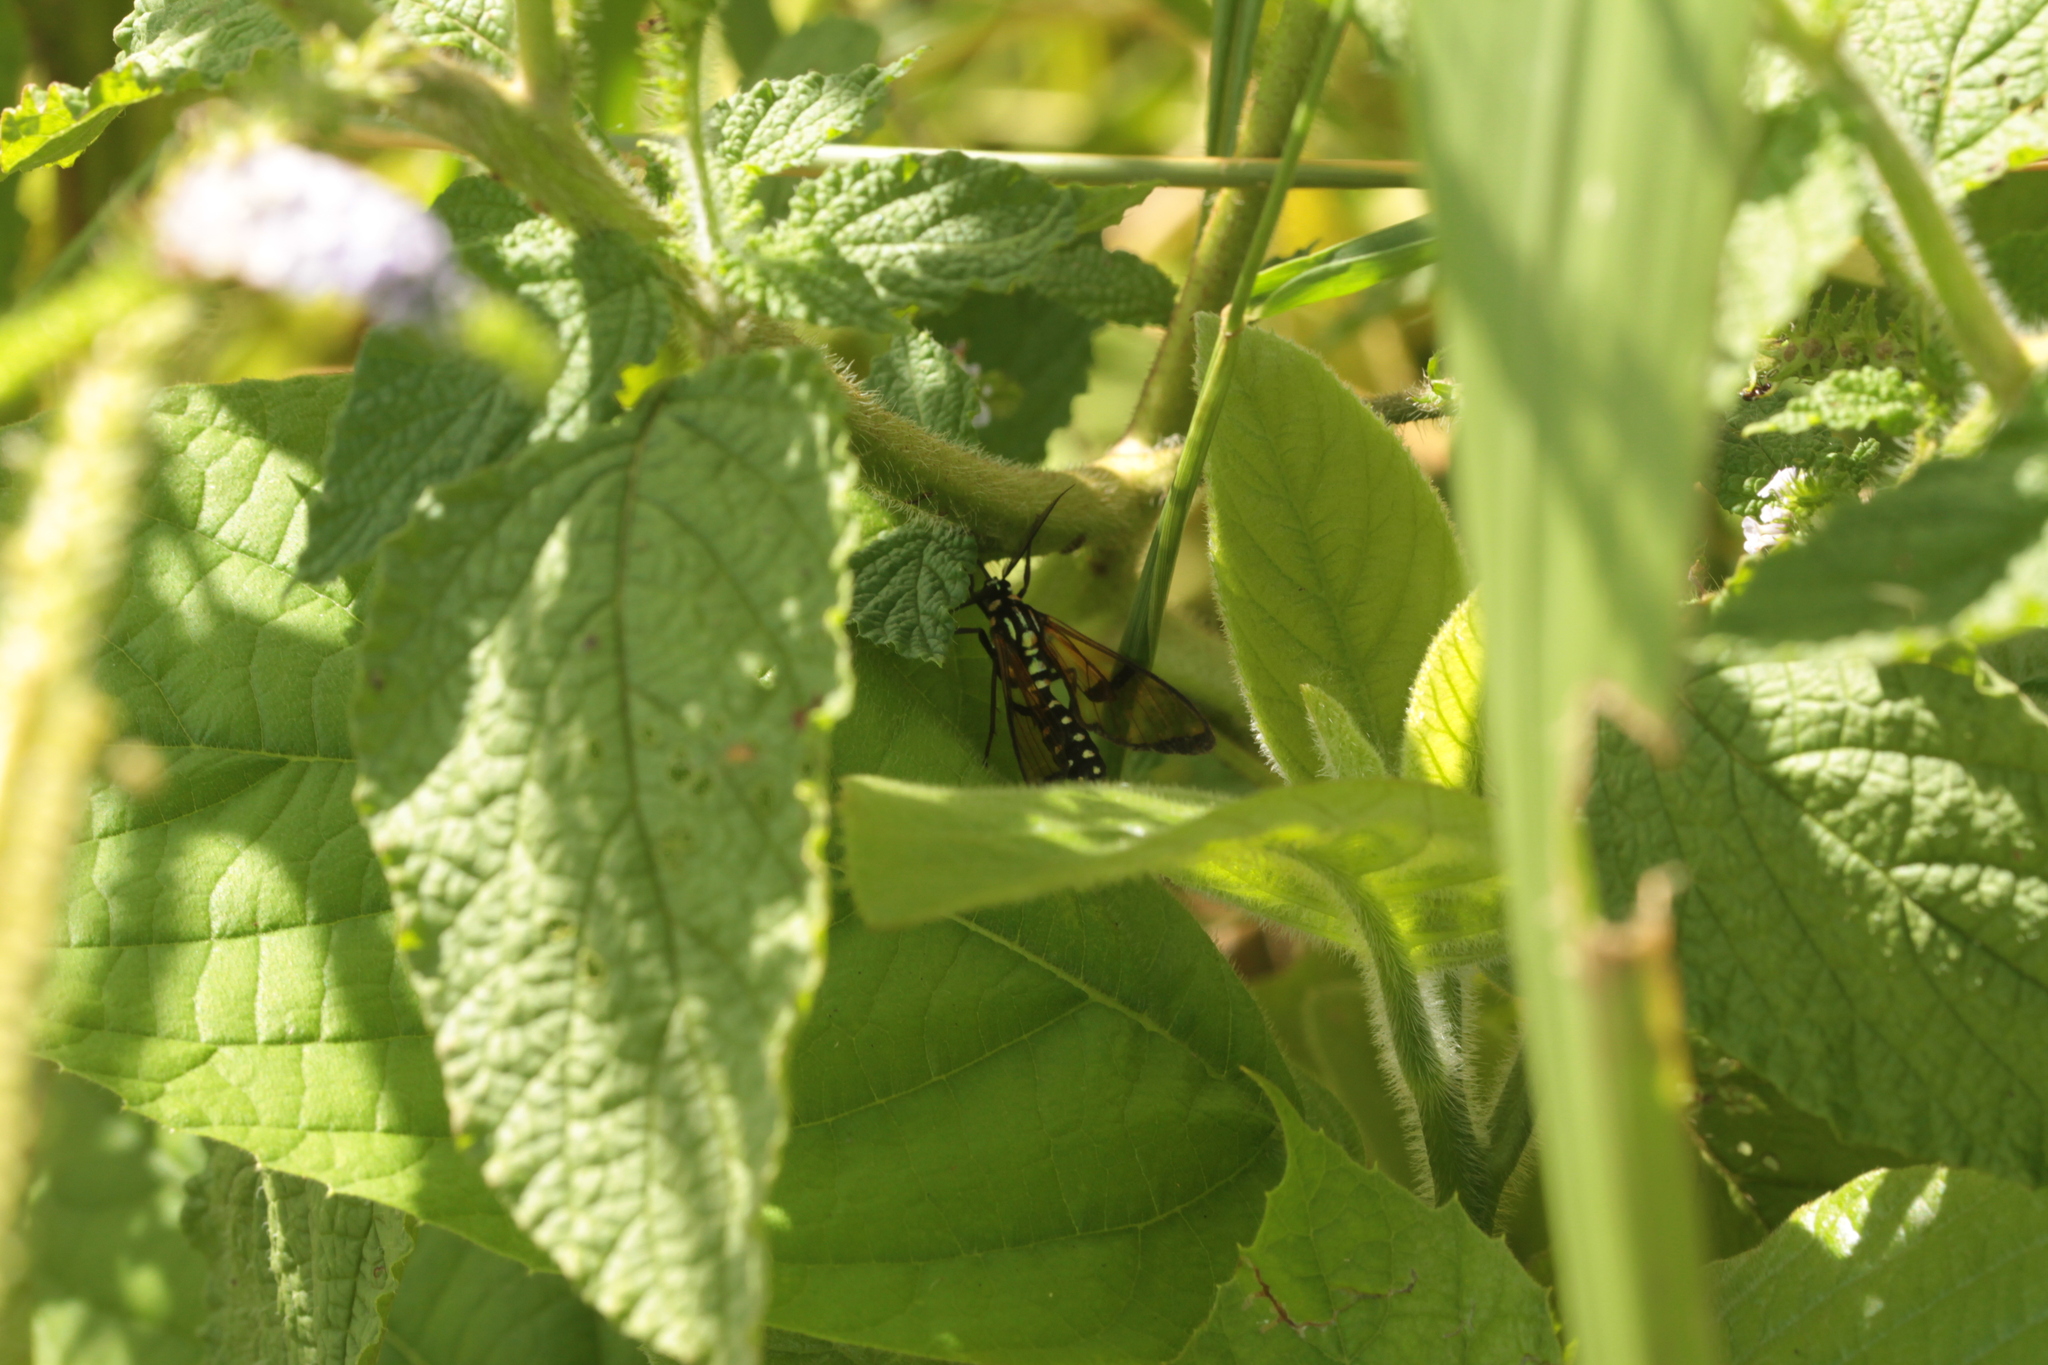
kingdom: Animalia
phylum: Arthropoda
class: Insecta
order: Lepidoptera
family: Erebidae
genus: Trichura
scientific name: Trichura cerberus
